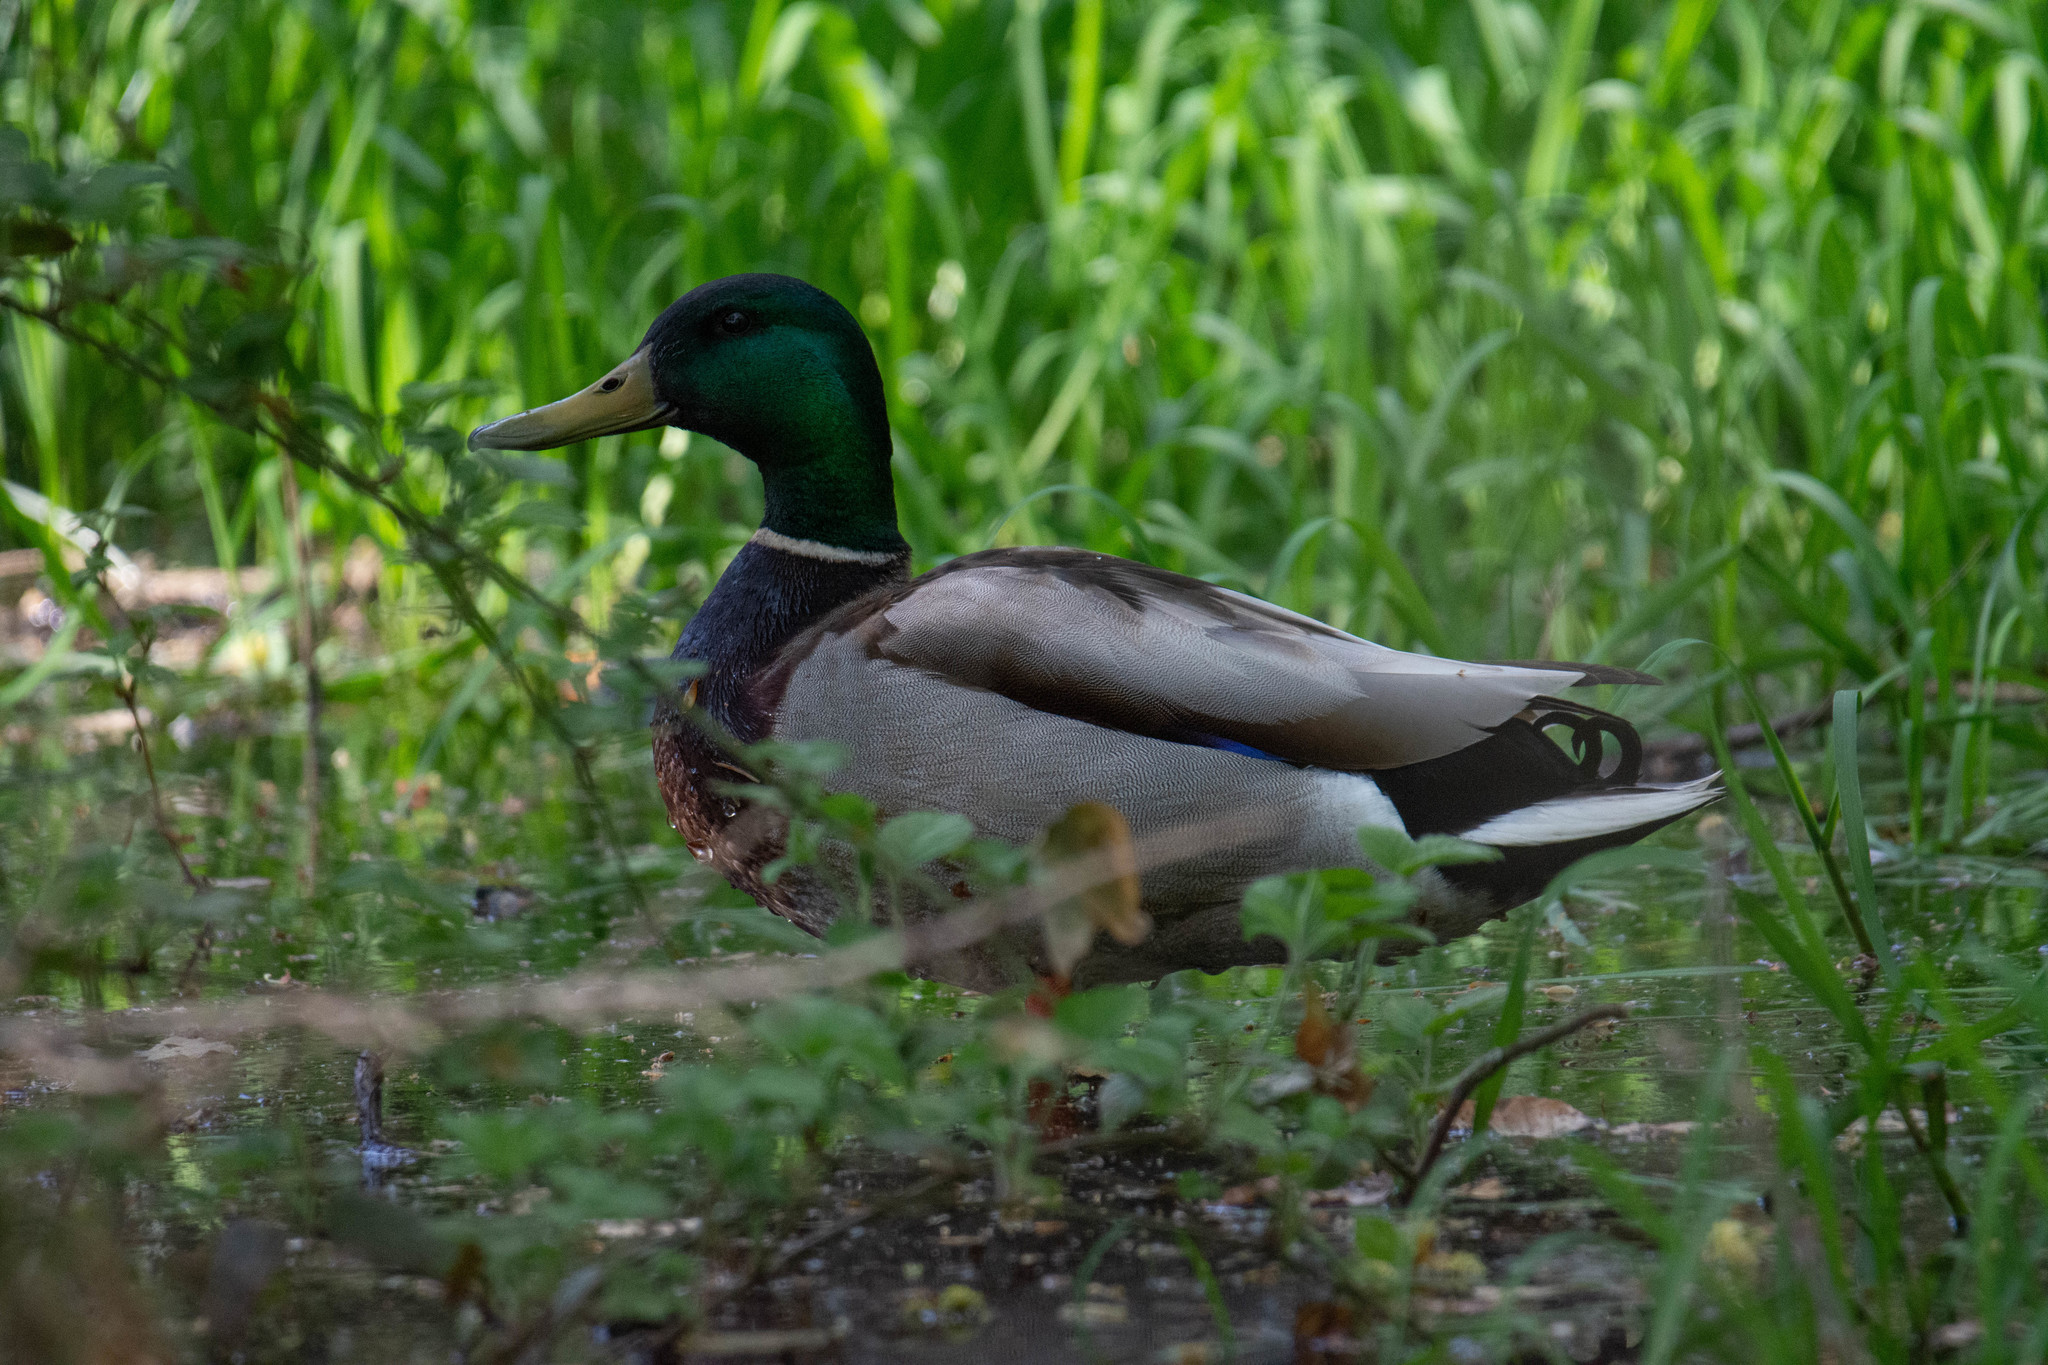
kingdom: Animalia
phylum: Chordata
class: Aves
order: Anseriformes
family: Anatidae
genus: Anas
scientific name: Anas platyrhynchos
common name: Mallard
